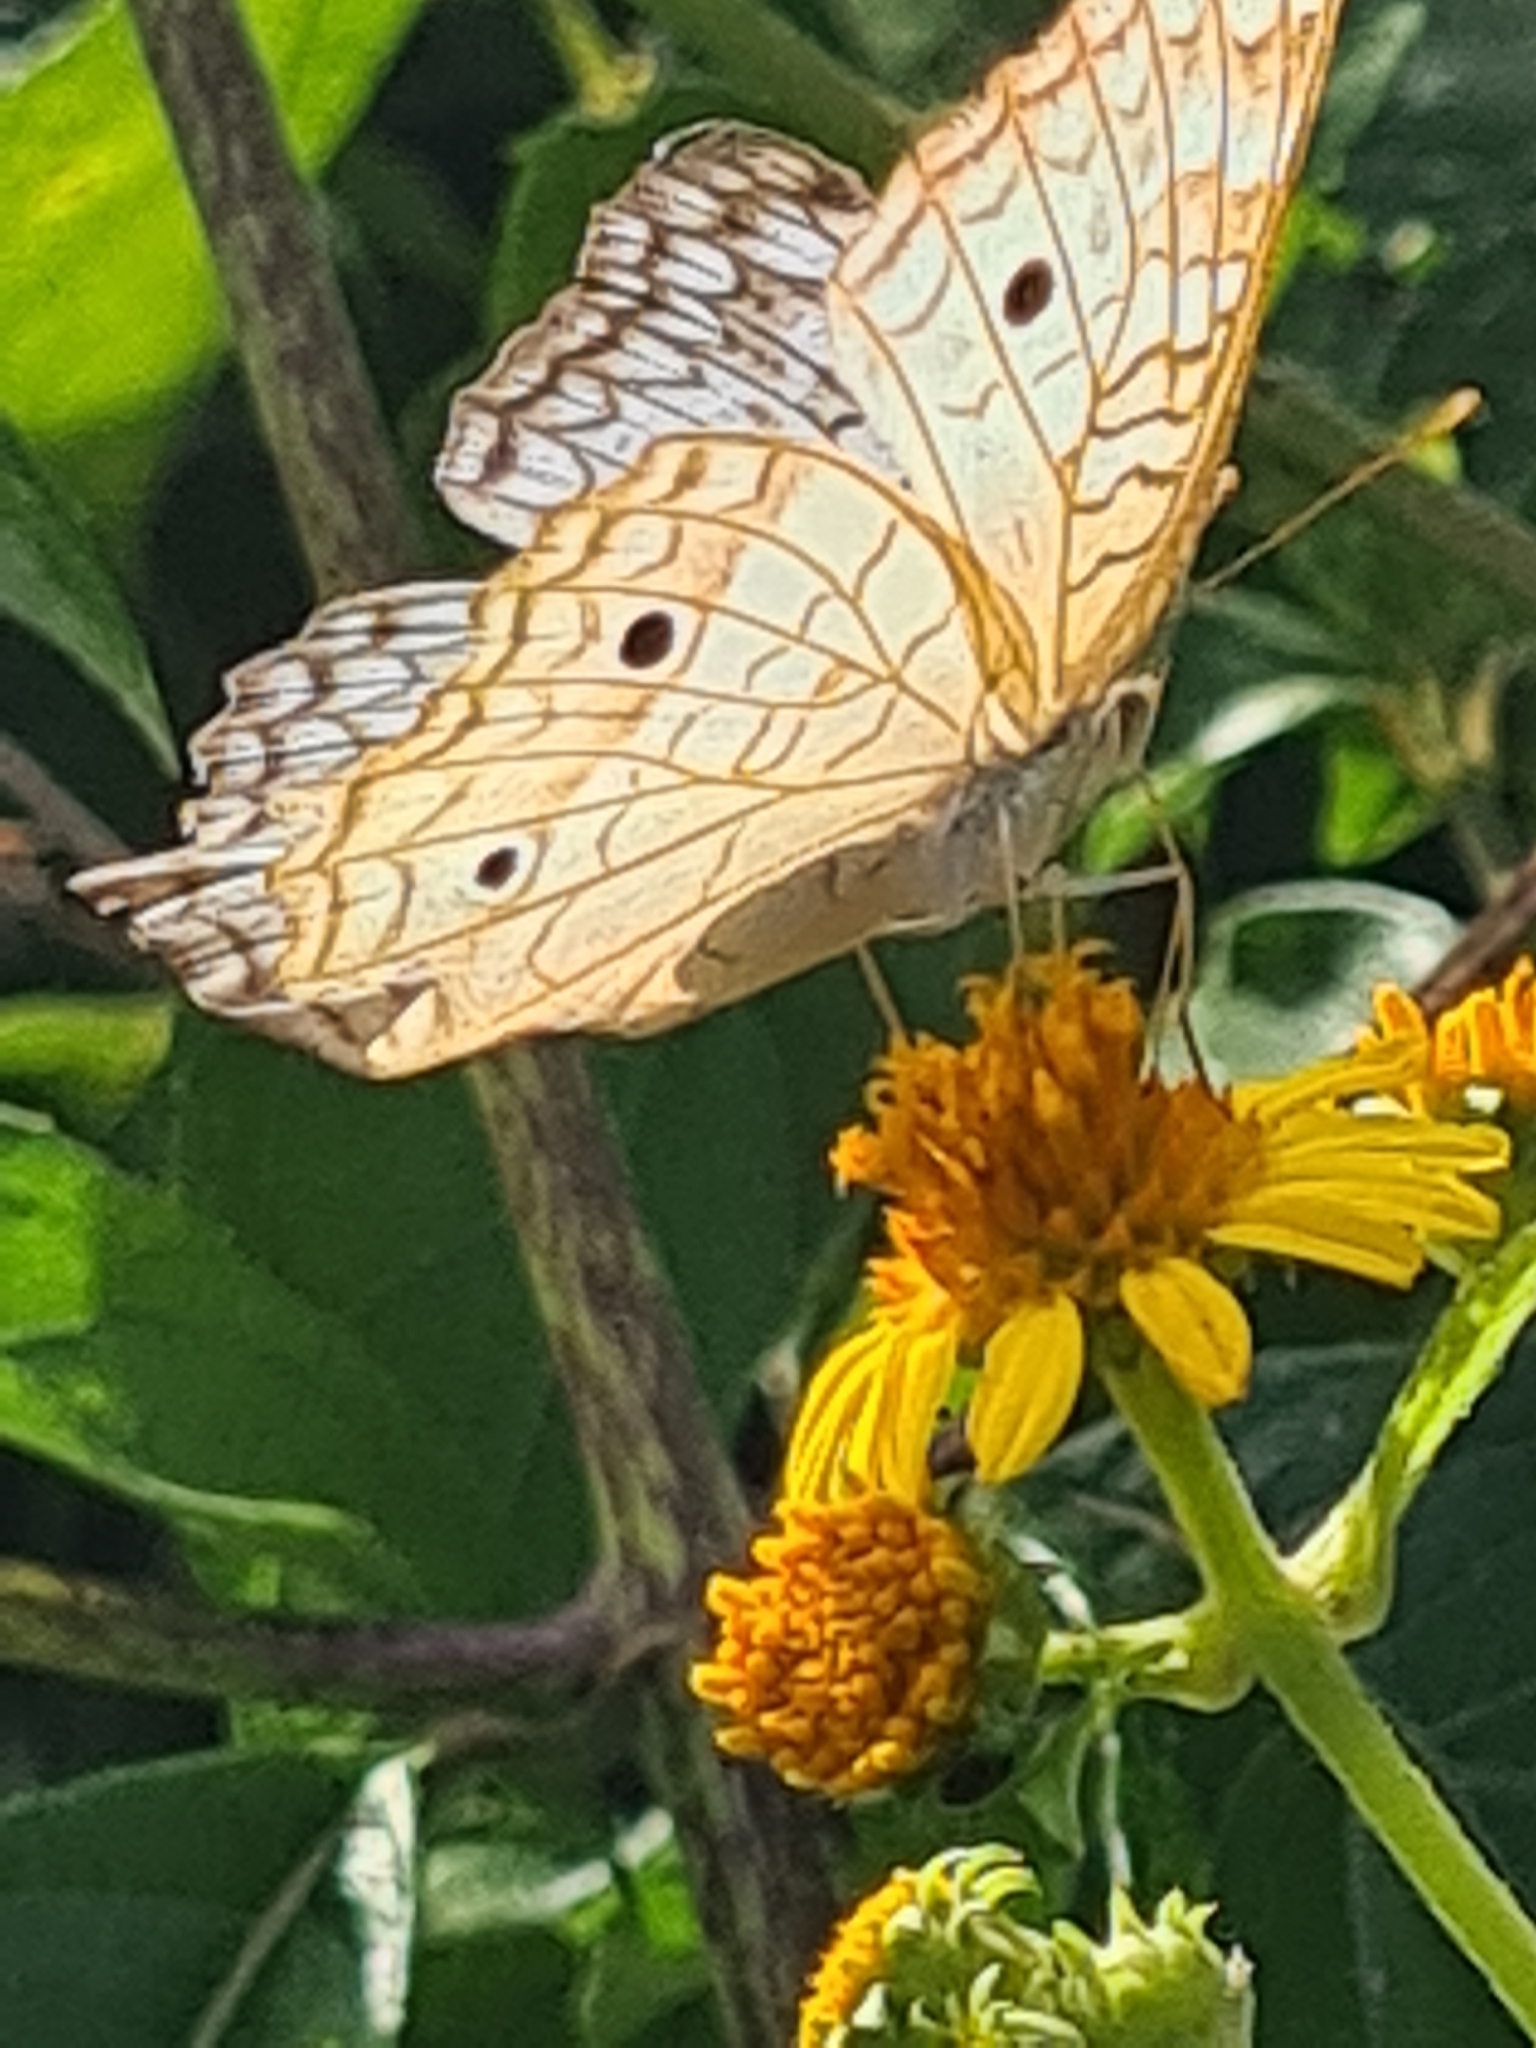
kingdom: Animalia
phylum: Arthropoda
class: Insecta
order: Lepidoptera
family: Nymphalidae
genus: Anartia
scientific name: Anartia jatrophae
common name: White peacock
